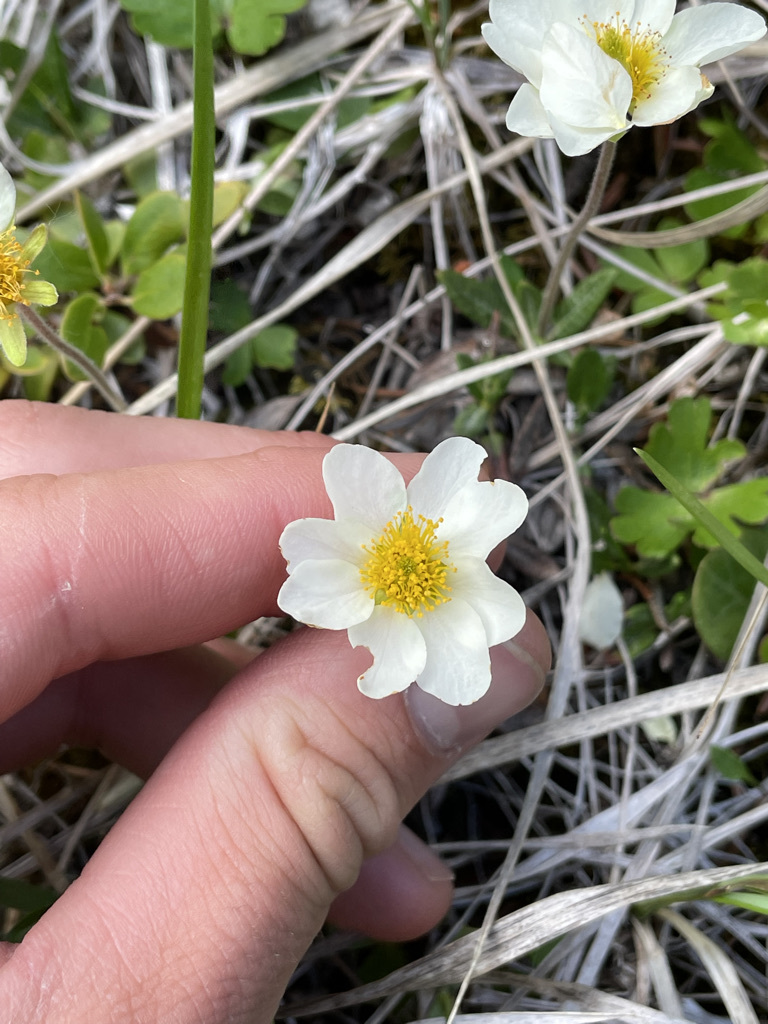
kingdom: Plantae
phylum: Tracheophyta
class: Magnoliopsida
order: Rosales
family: Rosaceae
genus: Dryas
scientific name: Dryas integrifolia
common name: Entire-leaved mountain avens
